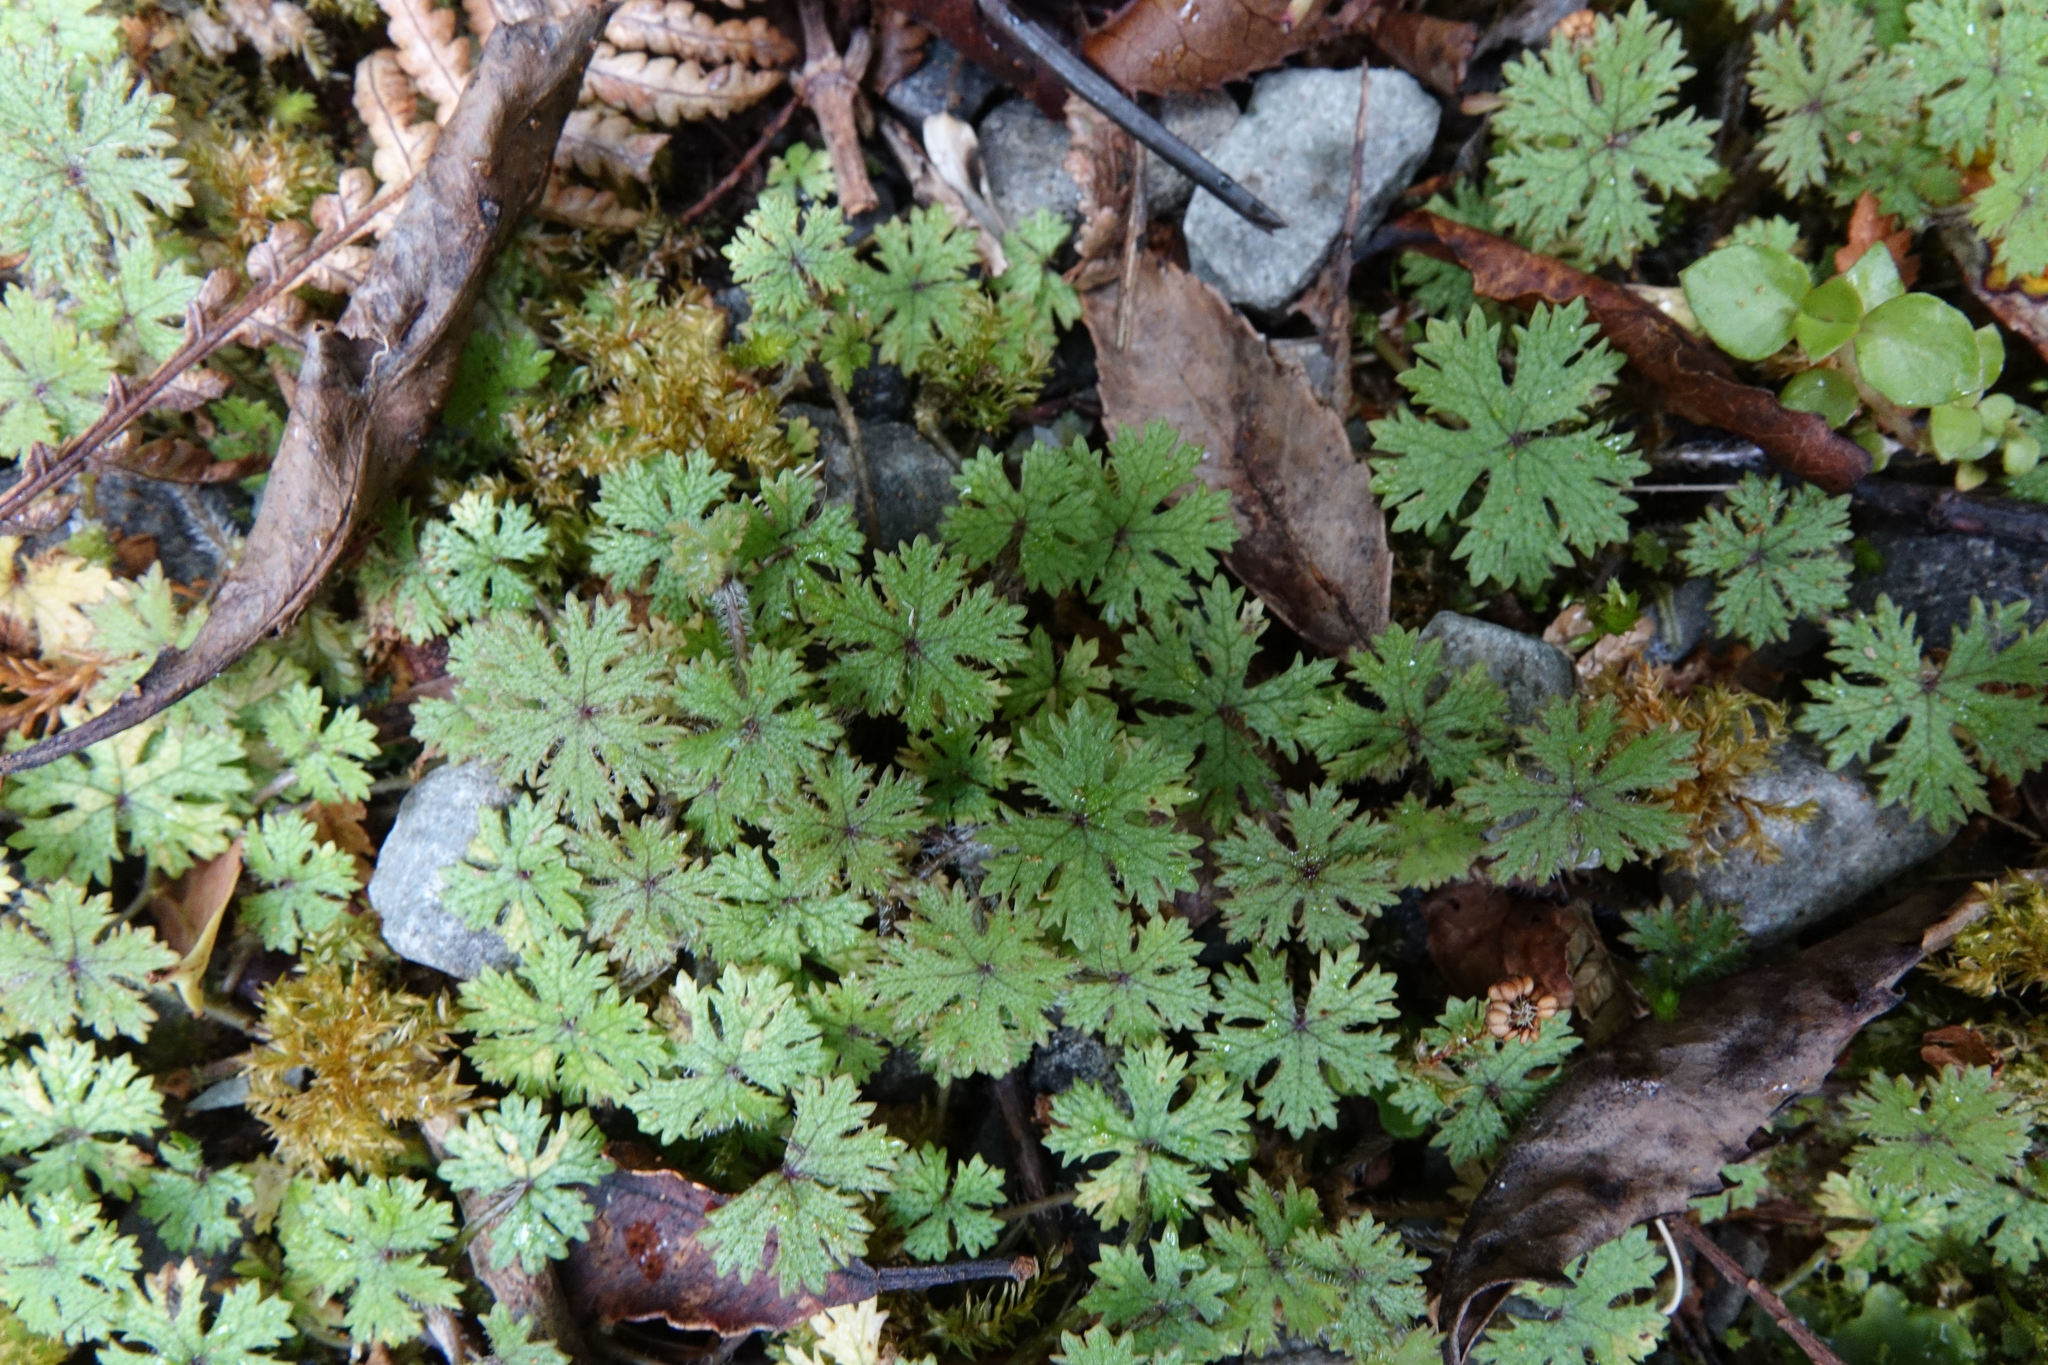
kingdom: Plantae
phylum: Tracheophyta
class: Magnoliopsida
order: Apiales
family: Araliaceae
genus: Hydrocotyle
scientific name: Hydrocotyle dissecta
